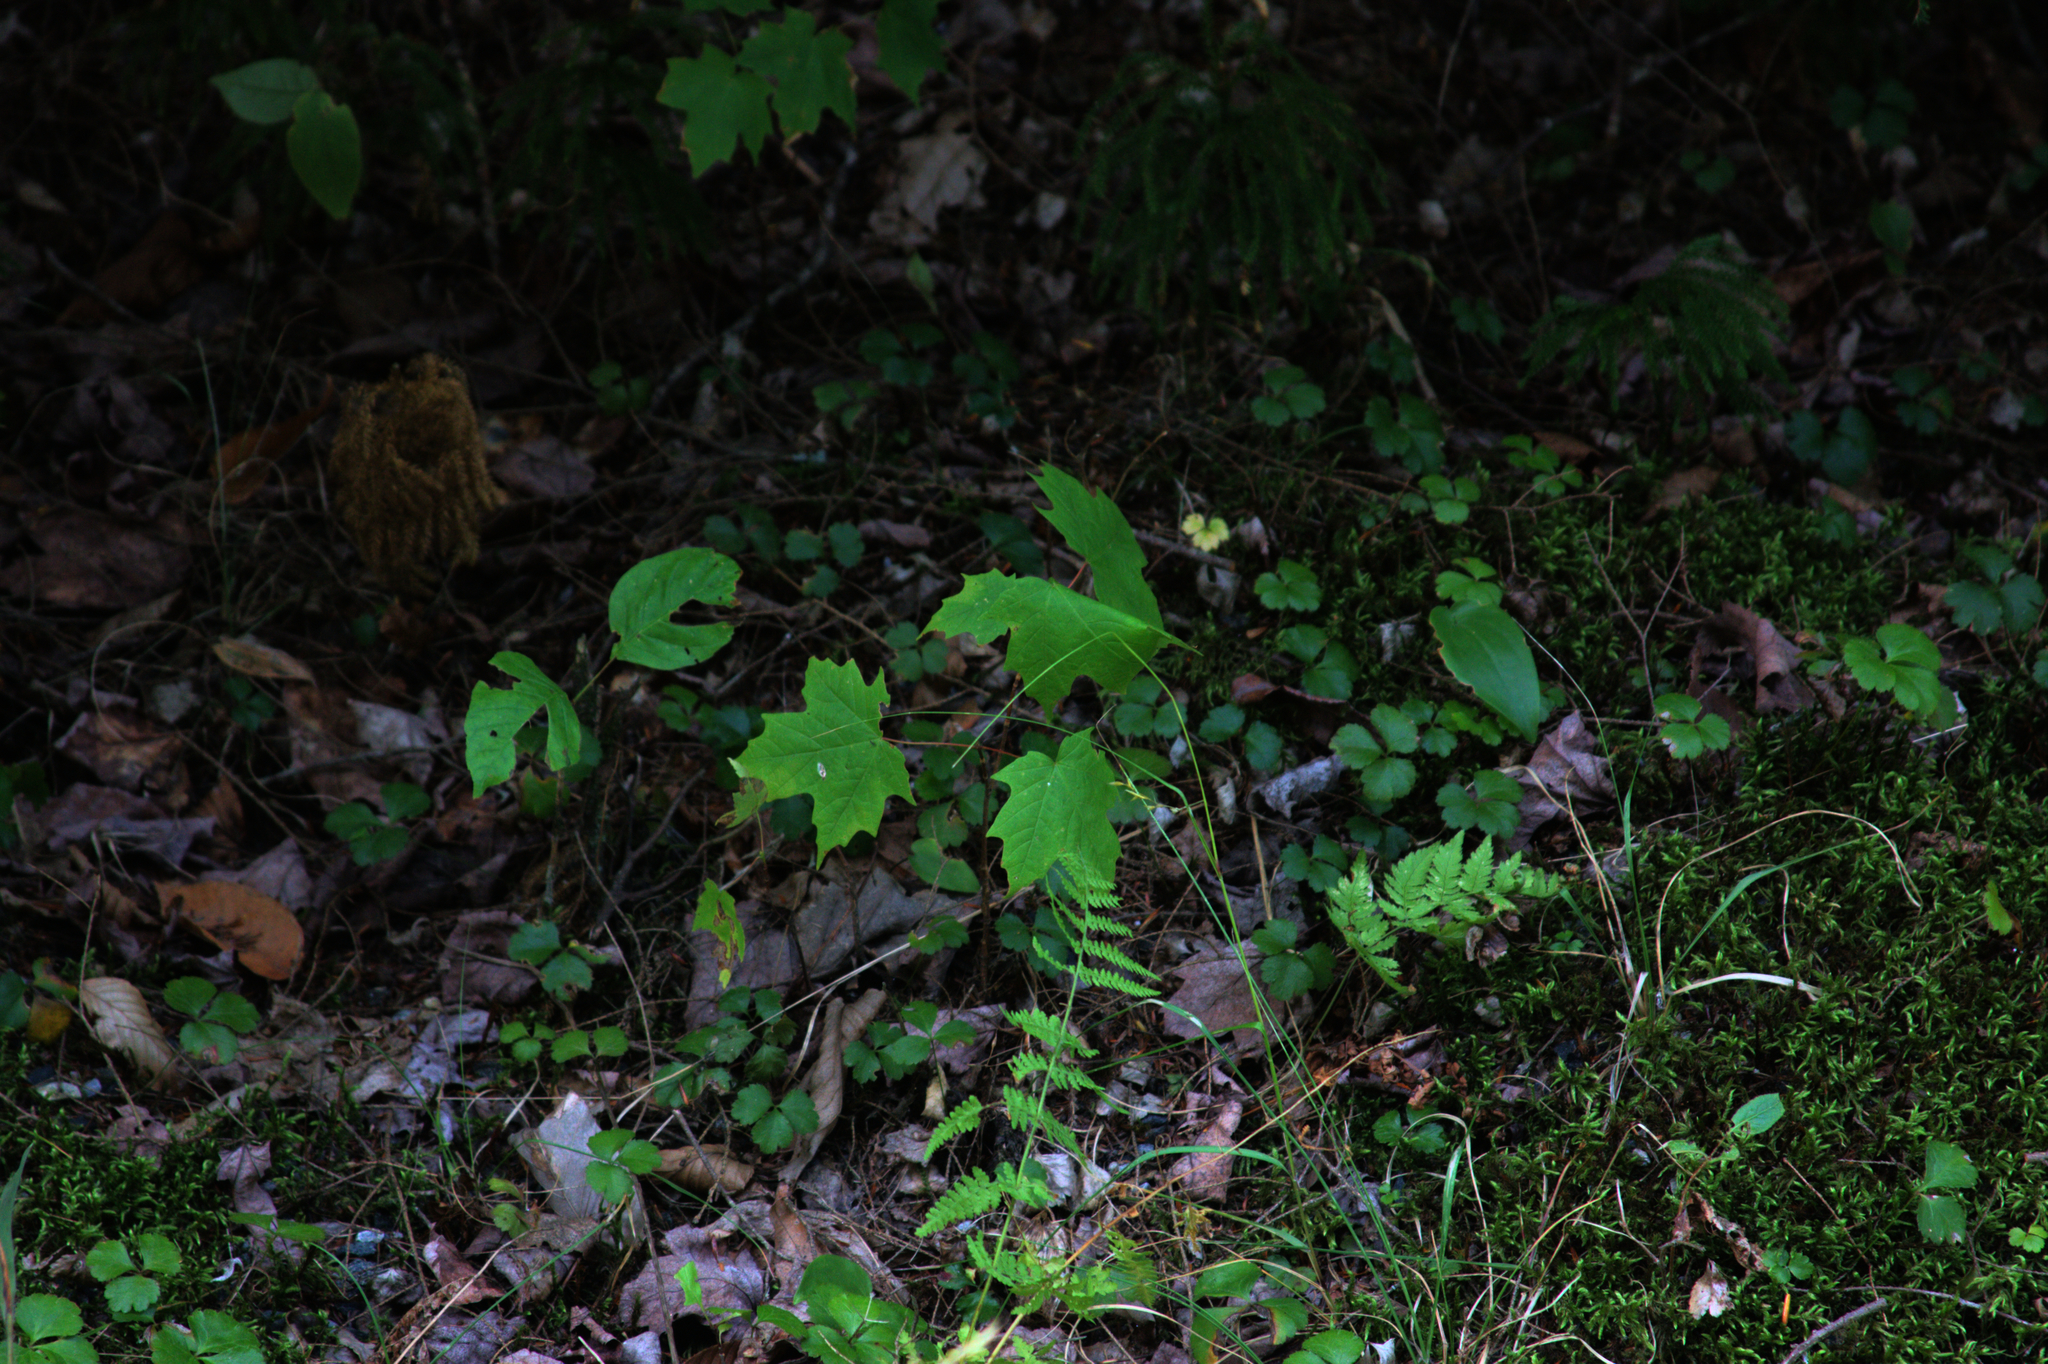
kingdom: Plantae
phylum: Tracheophyta
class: Liliopsida
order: Asparagales
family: Asparagaceae
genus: Maianthemum
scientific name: Maianthemum canadense
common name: False lily-of-the-valley
